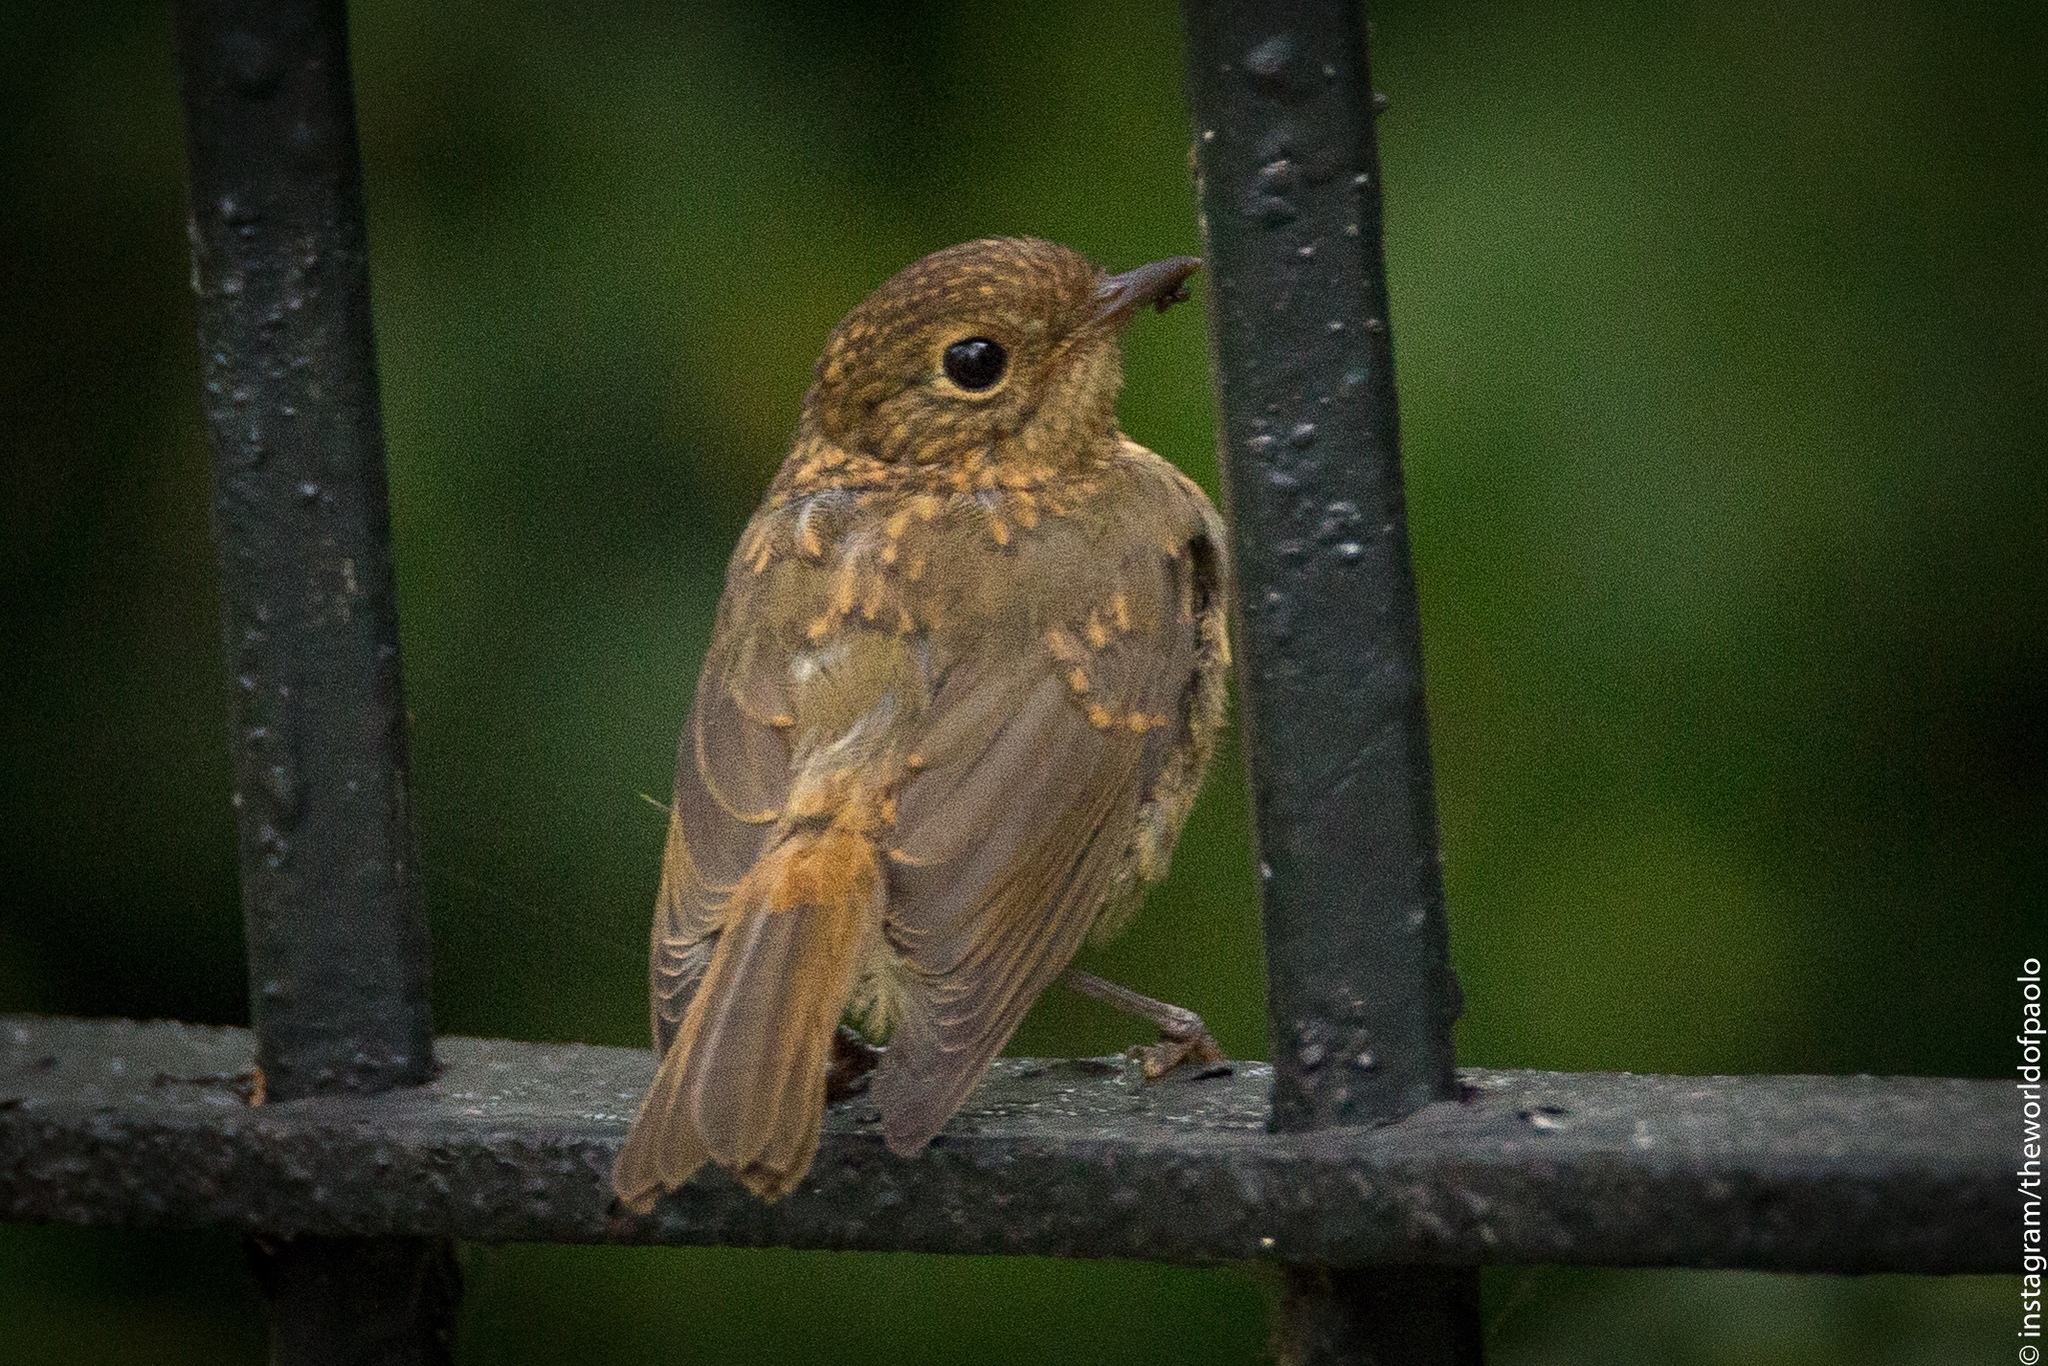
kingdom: Animalia
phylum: Chordata
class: Aves
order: Passeriformes
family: Muscicapidae
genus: Erithacus
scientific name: Erithacus rubecula
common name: European robin
